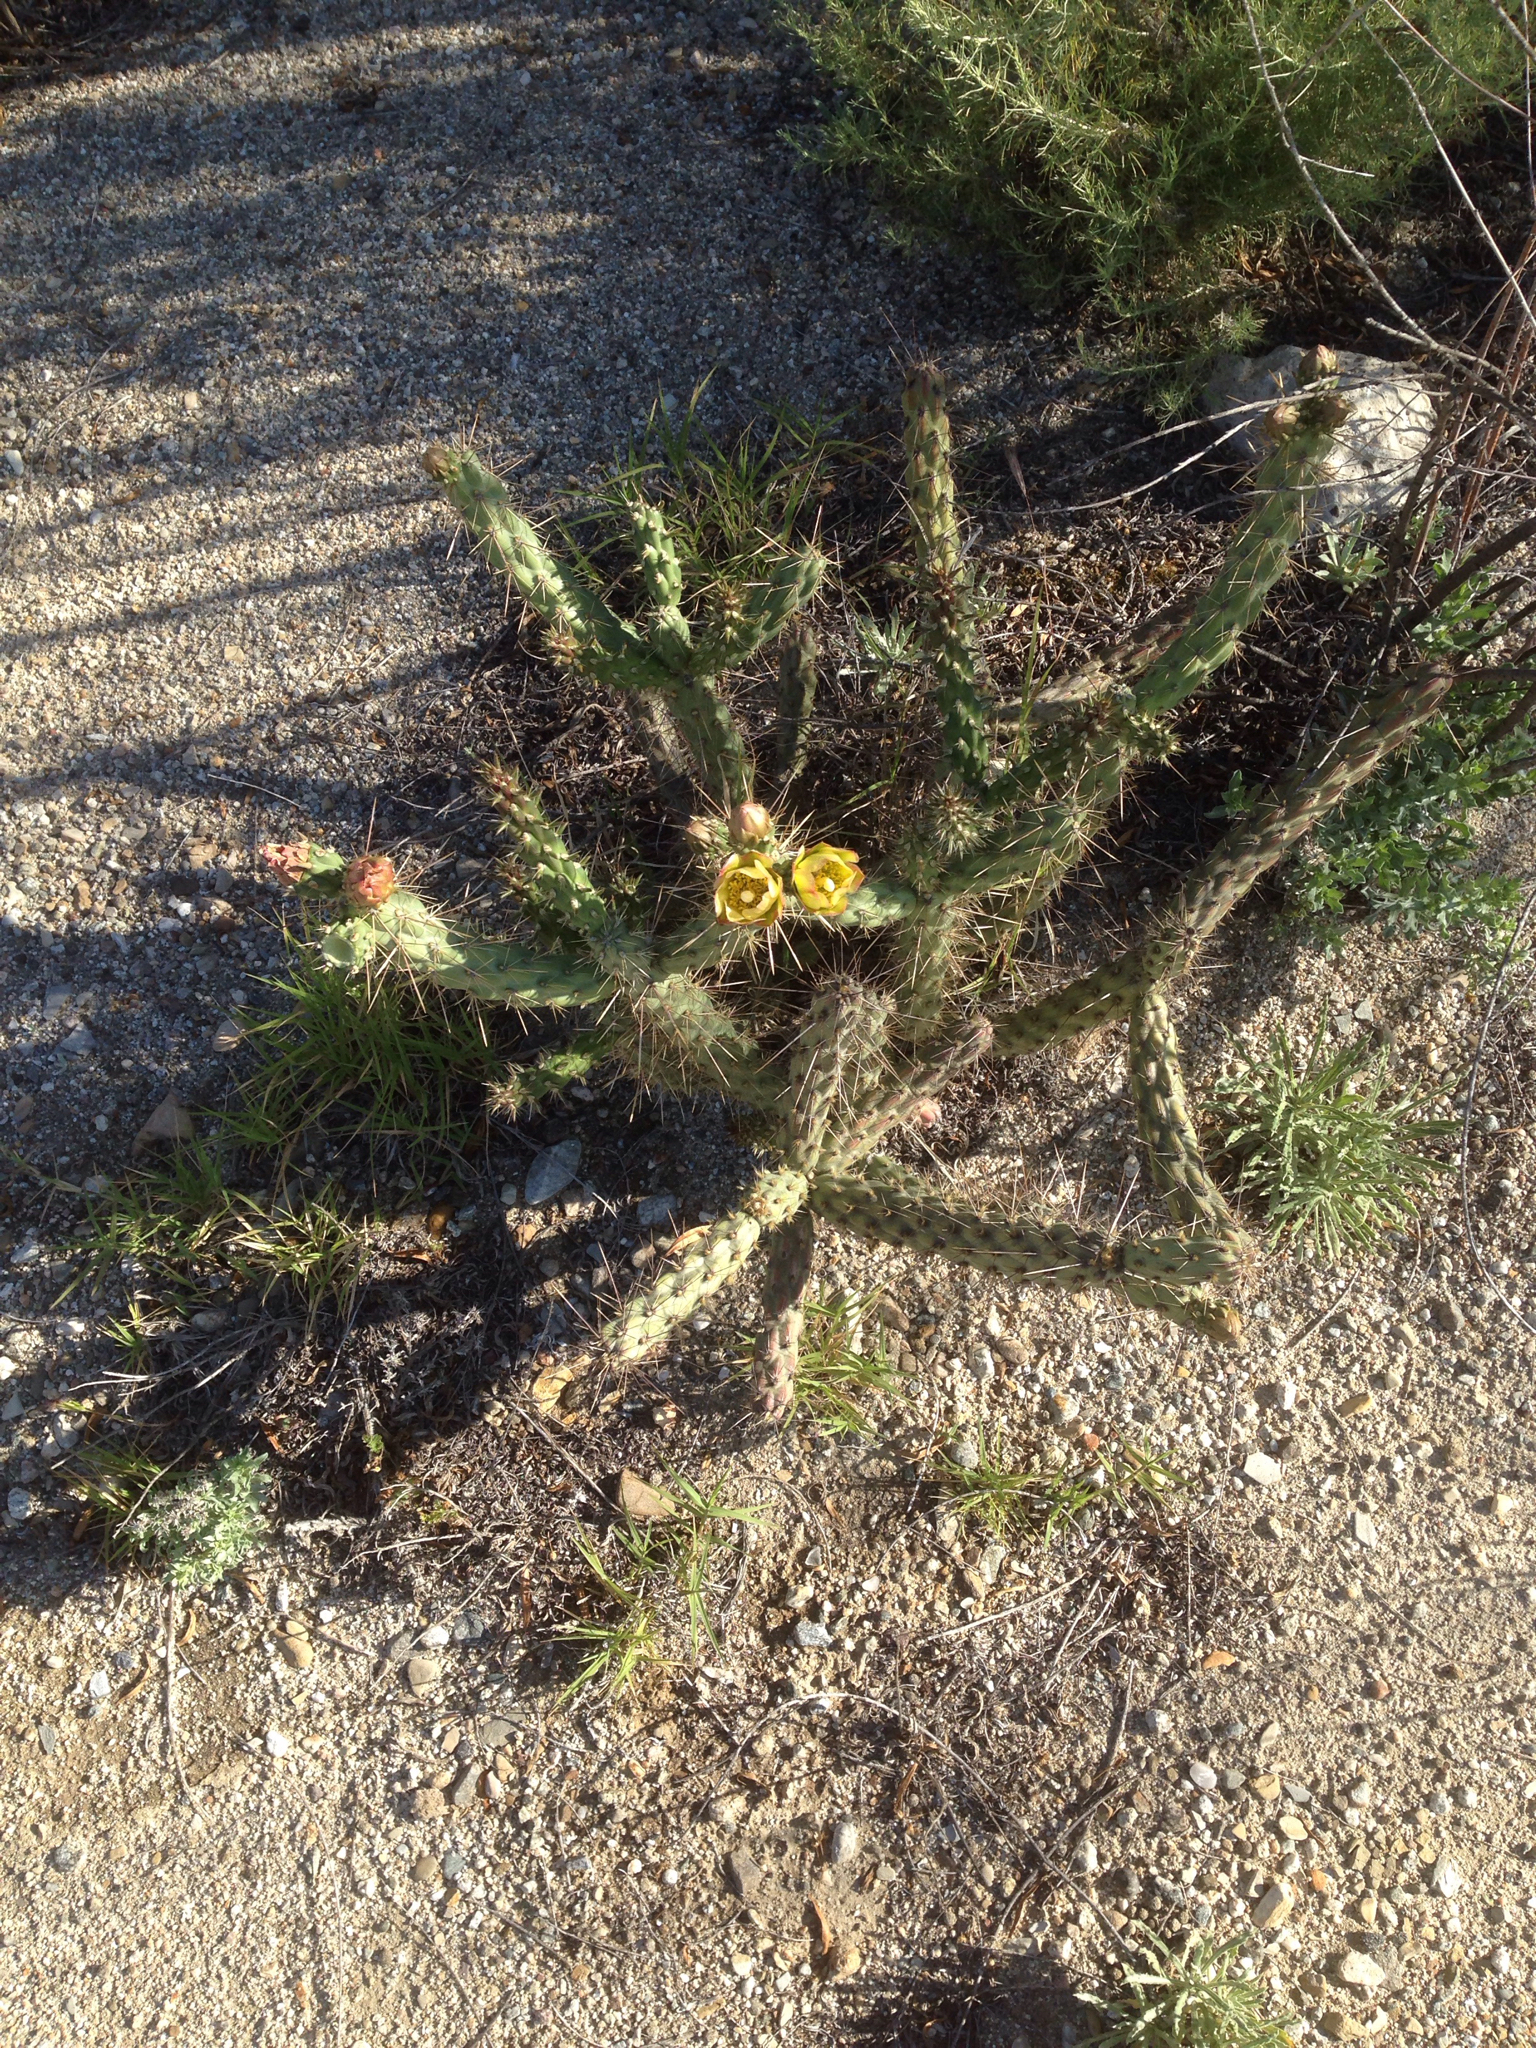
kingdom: Plantae
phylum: Tracheophyta
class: Magnoliopsida
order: Caryophyllales
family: Cactaceae
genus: Cylindropuntia
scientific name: Cylindropuntia bernardina
